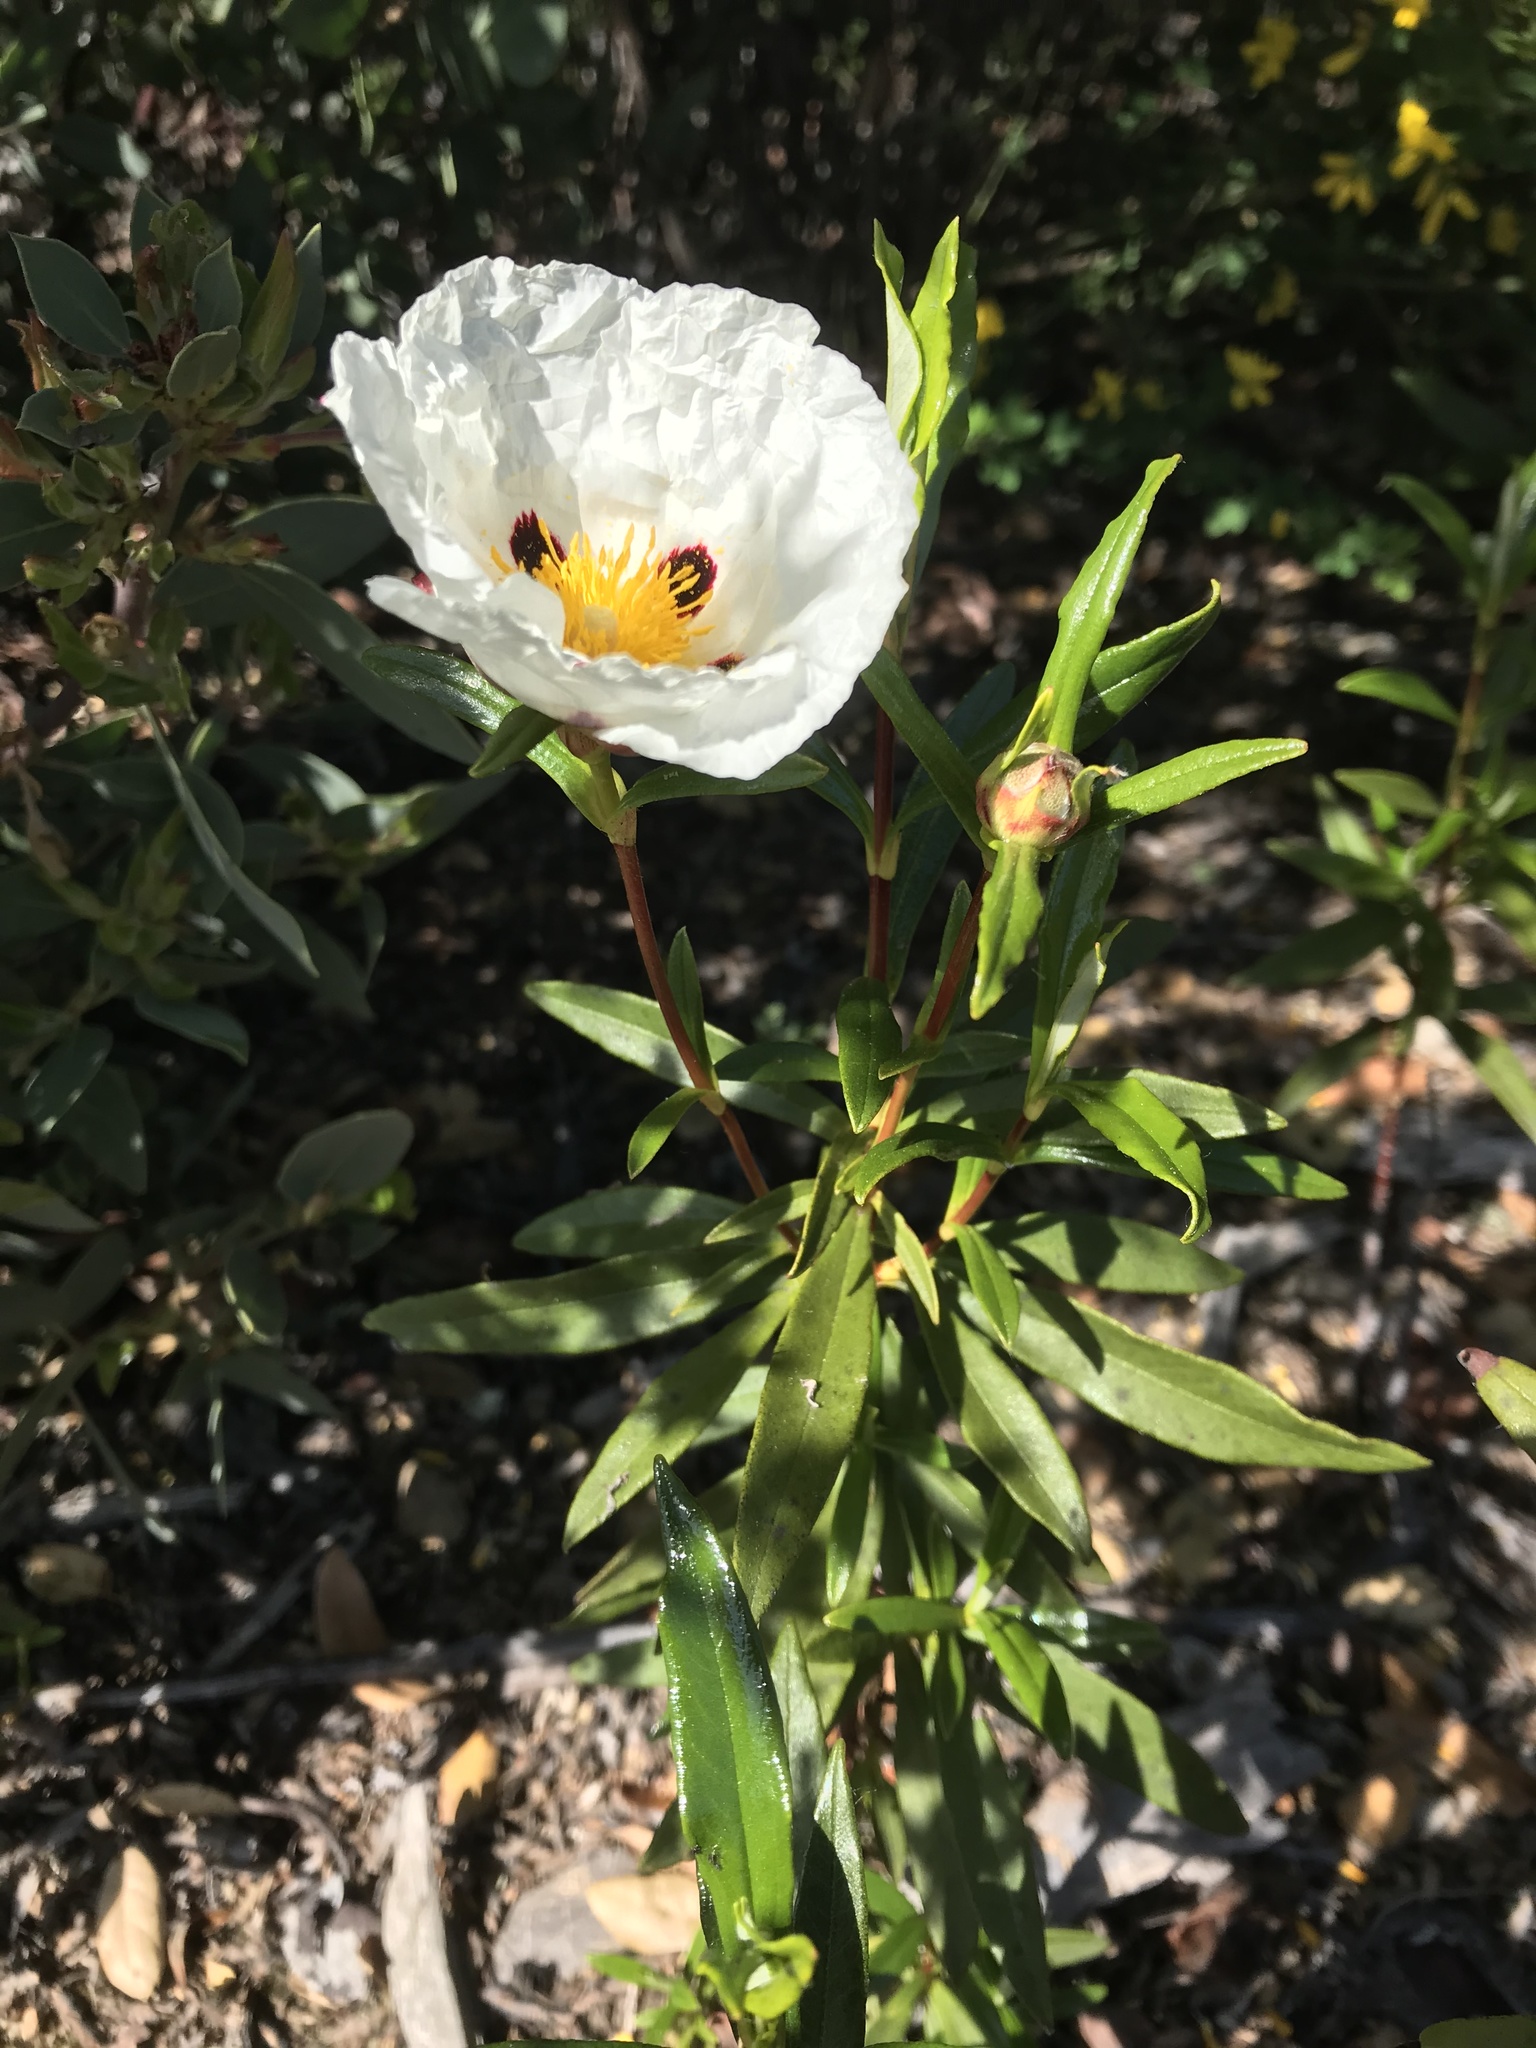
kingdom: Plantae
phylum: Tracheophyta
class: Magnoliopsida
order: Malvales
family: Cistaceae
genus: Cistus
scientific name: Cistus ladanifer
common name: Common gum cistus
